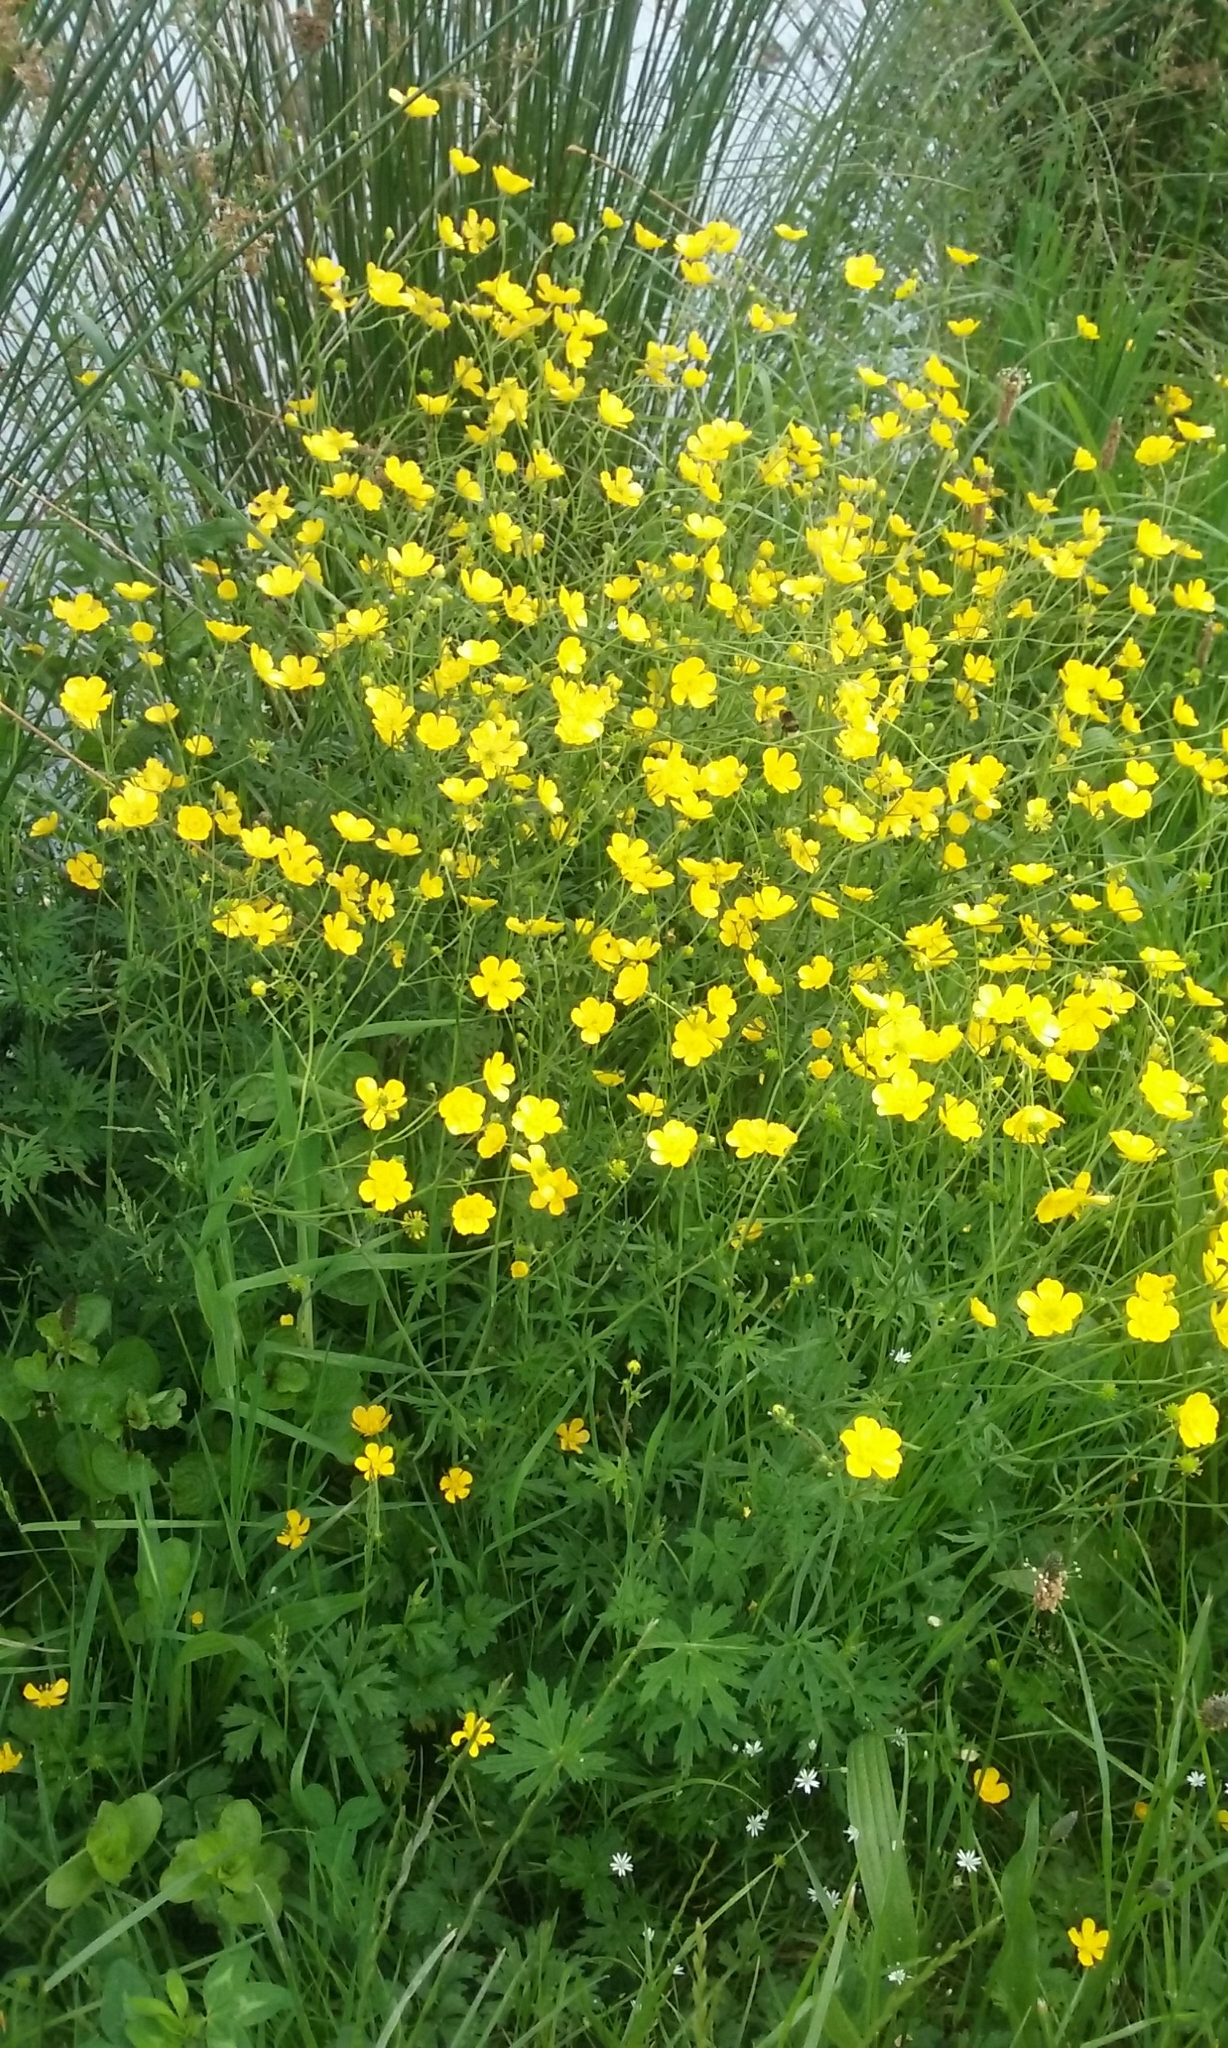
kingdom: Plantae
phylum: Tracheophyta
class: Magnoliopsida
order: Ranunculales
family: Ranunculaceae
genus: Ranunculus
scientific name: Ranunculus acris
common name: Meadow buttercup
